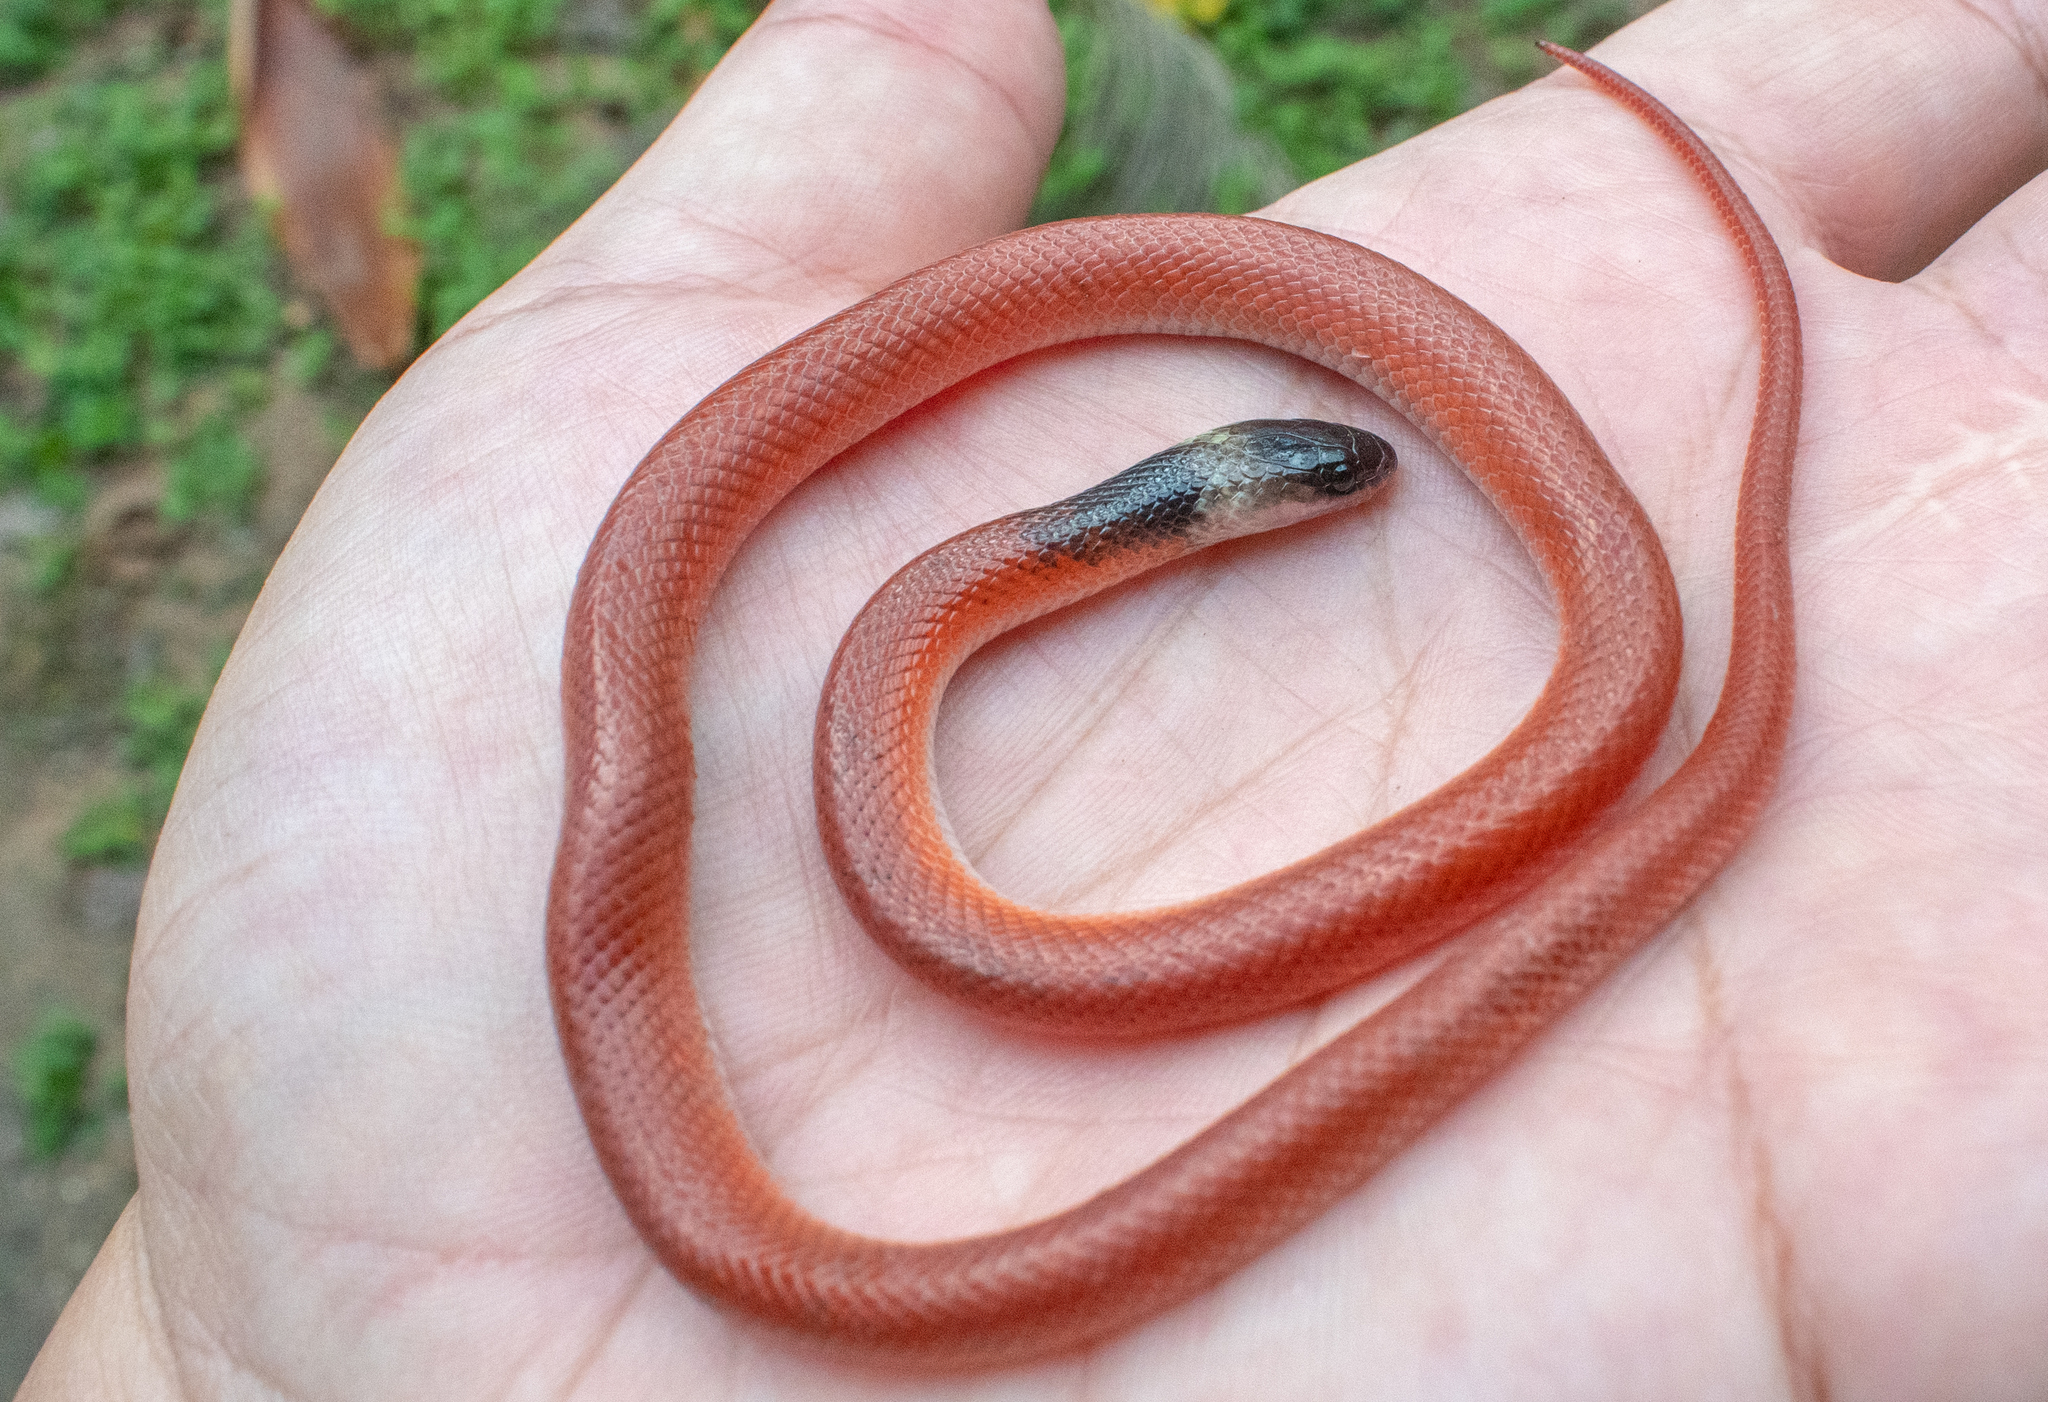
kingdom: Animalia
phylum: Chordata
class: Squamata
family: Colubridae
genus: Pseudoboa
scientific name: Pseudoboa neuwiedii
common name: Neuwied's false boa
